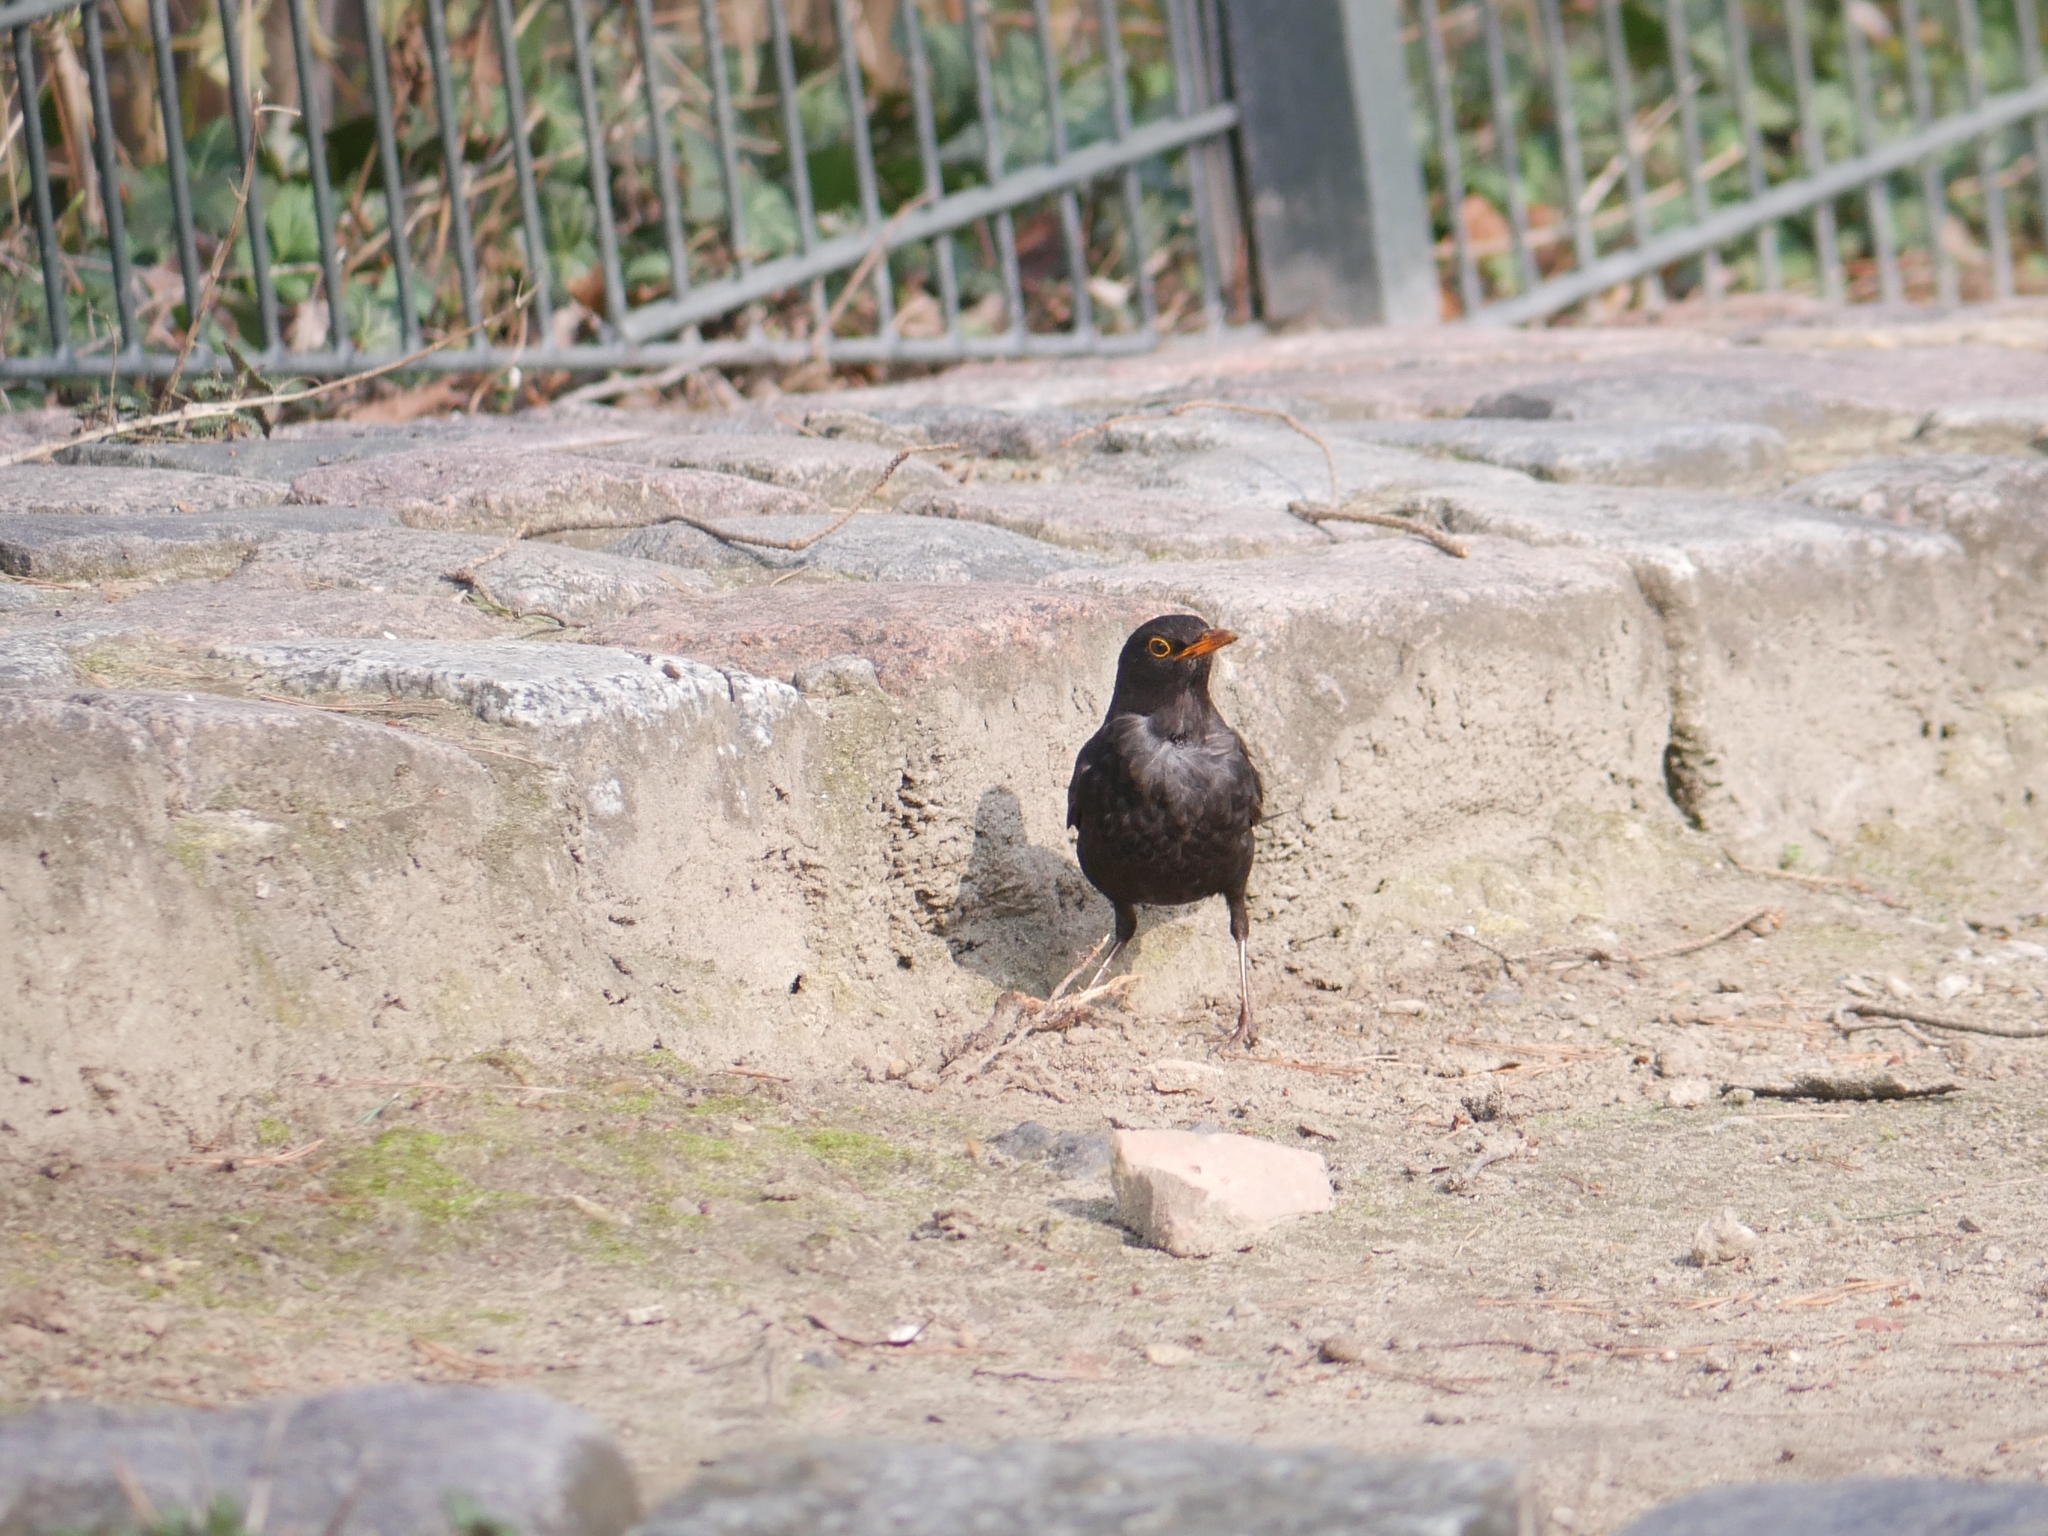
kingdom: Animalia
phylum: Chordata
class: Aves
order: Passeriformes
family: Turdidae
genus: Turdus
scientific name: Turdus merula
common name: Common blackbird
